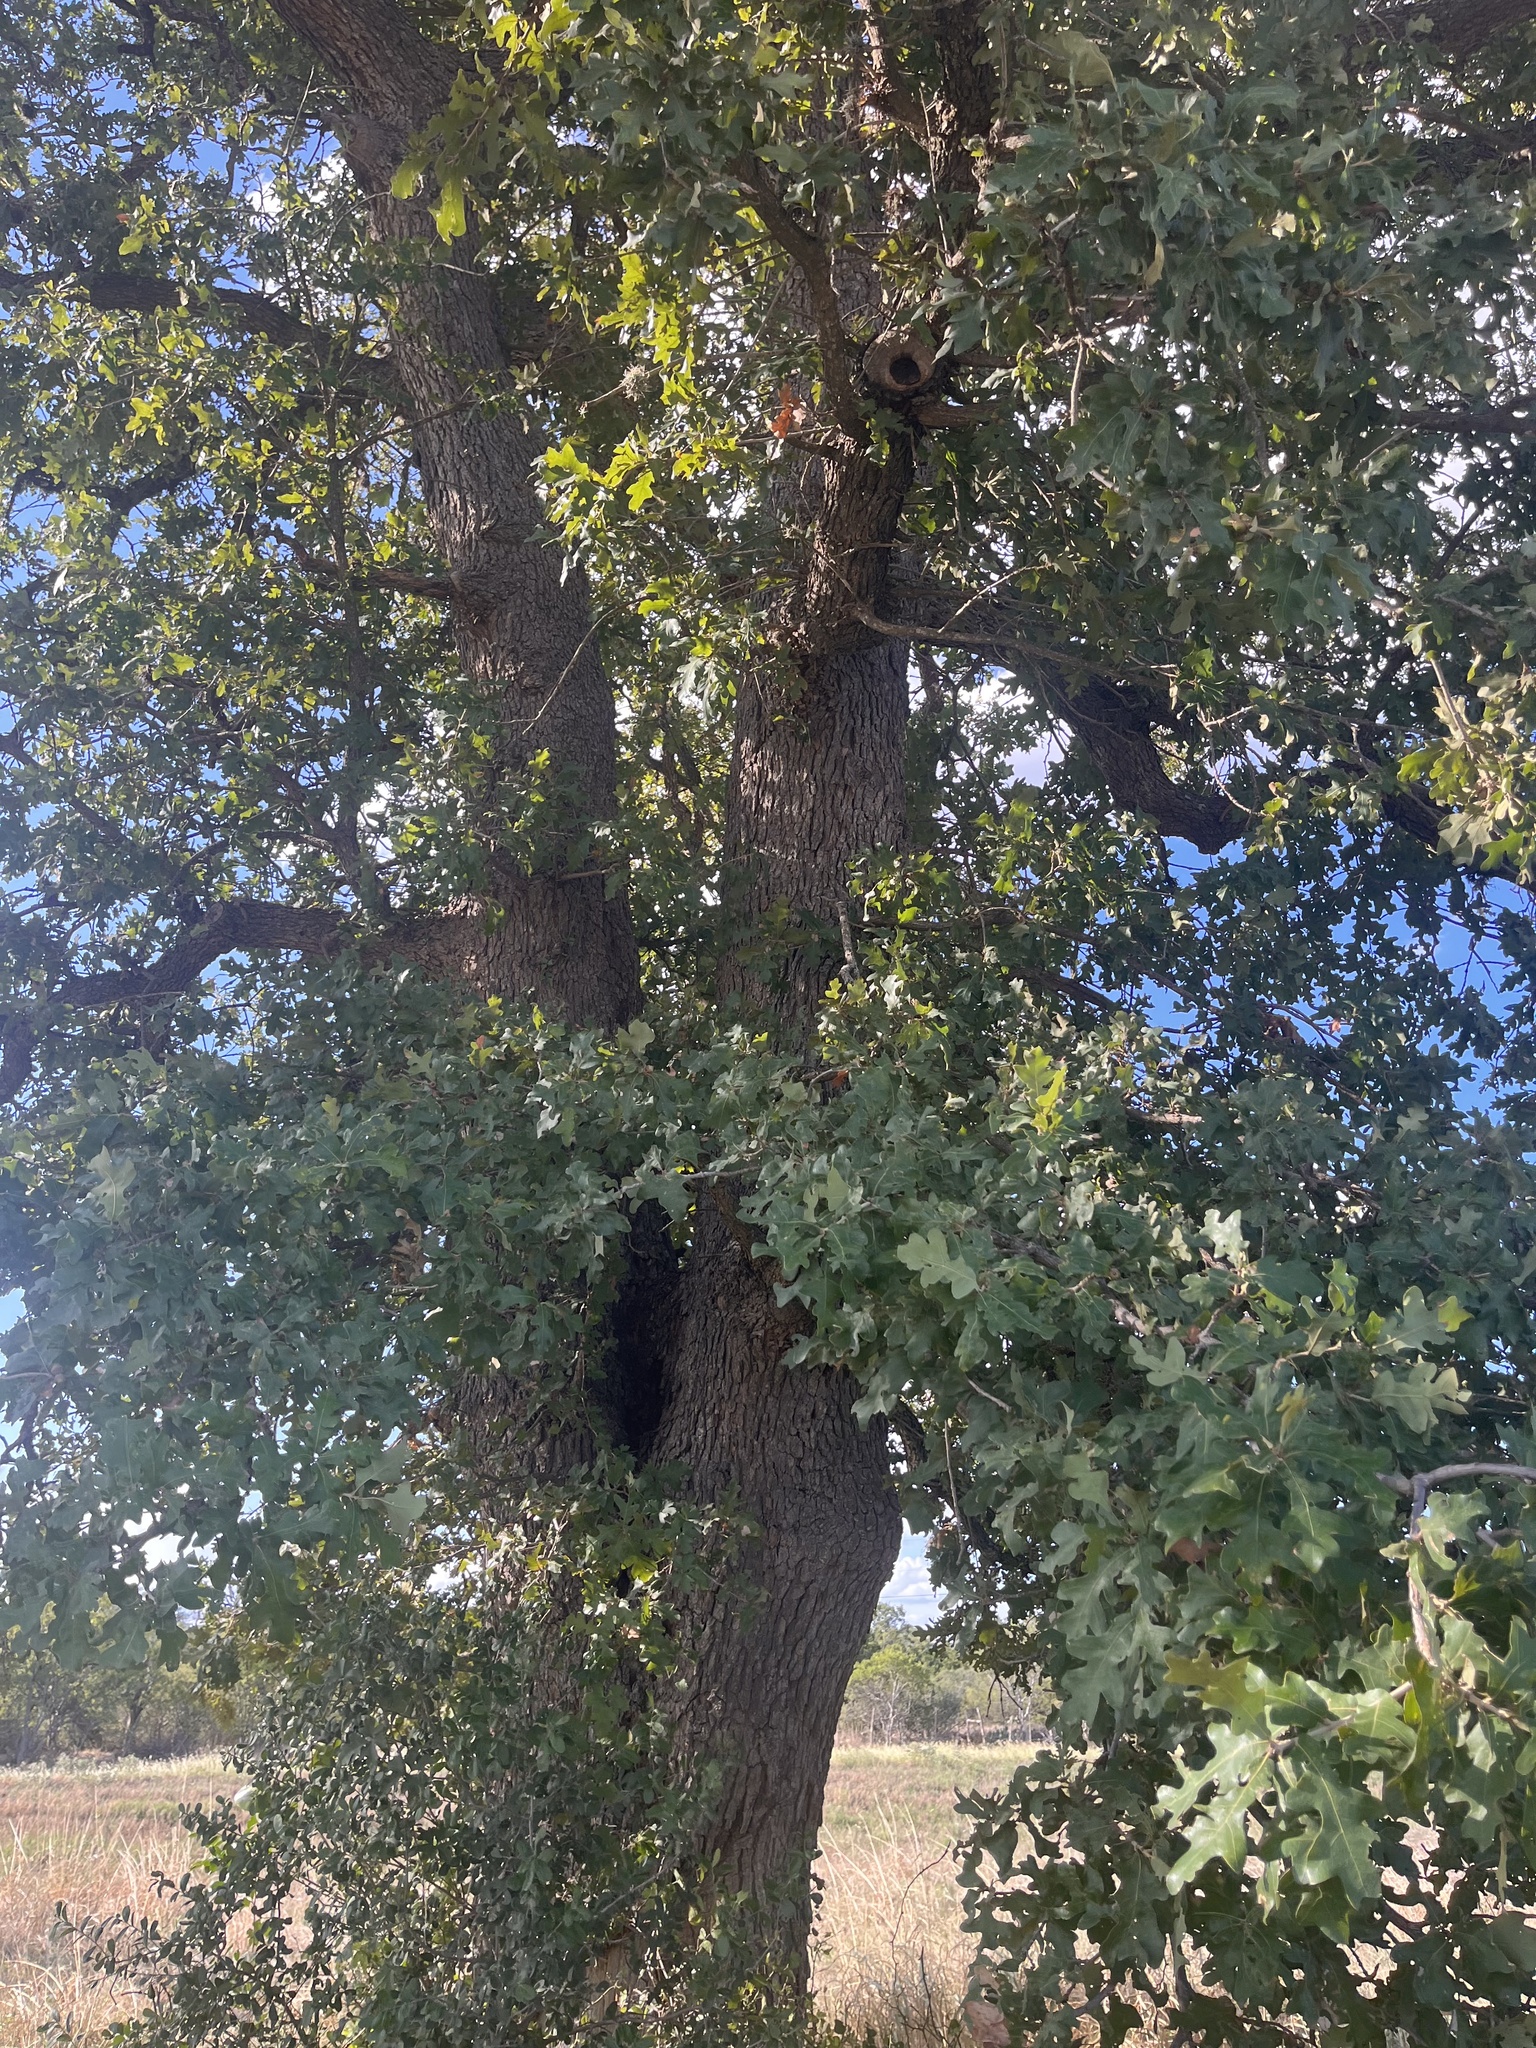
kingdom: Plantae
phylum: Tracheophyta
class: Magnoliopsida
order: Fagales
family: Fagaceae
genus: Quercus
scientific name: Quercus stellata
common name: Post oak
